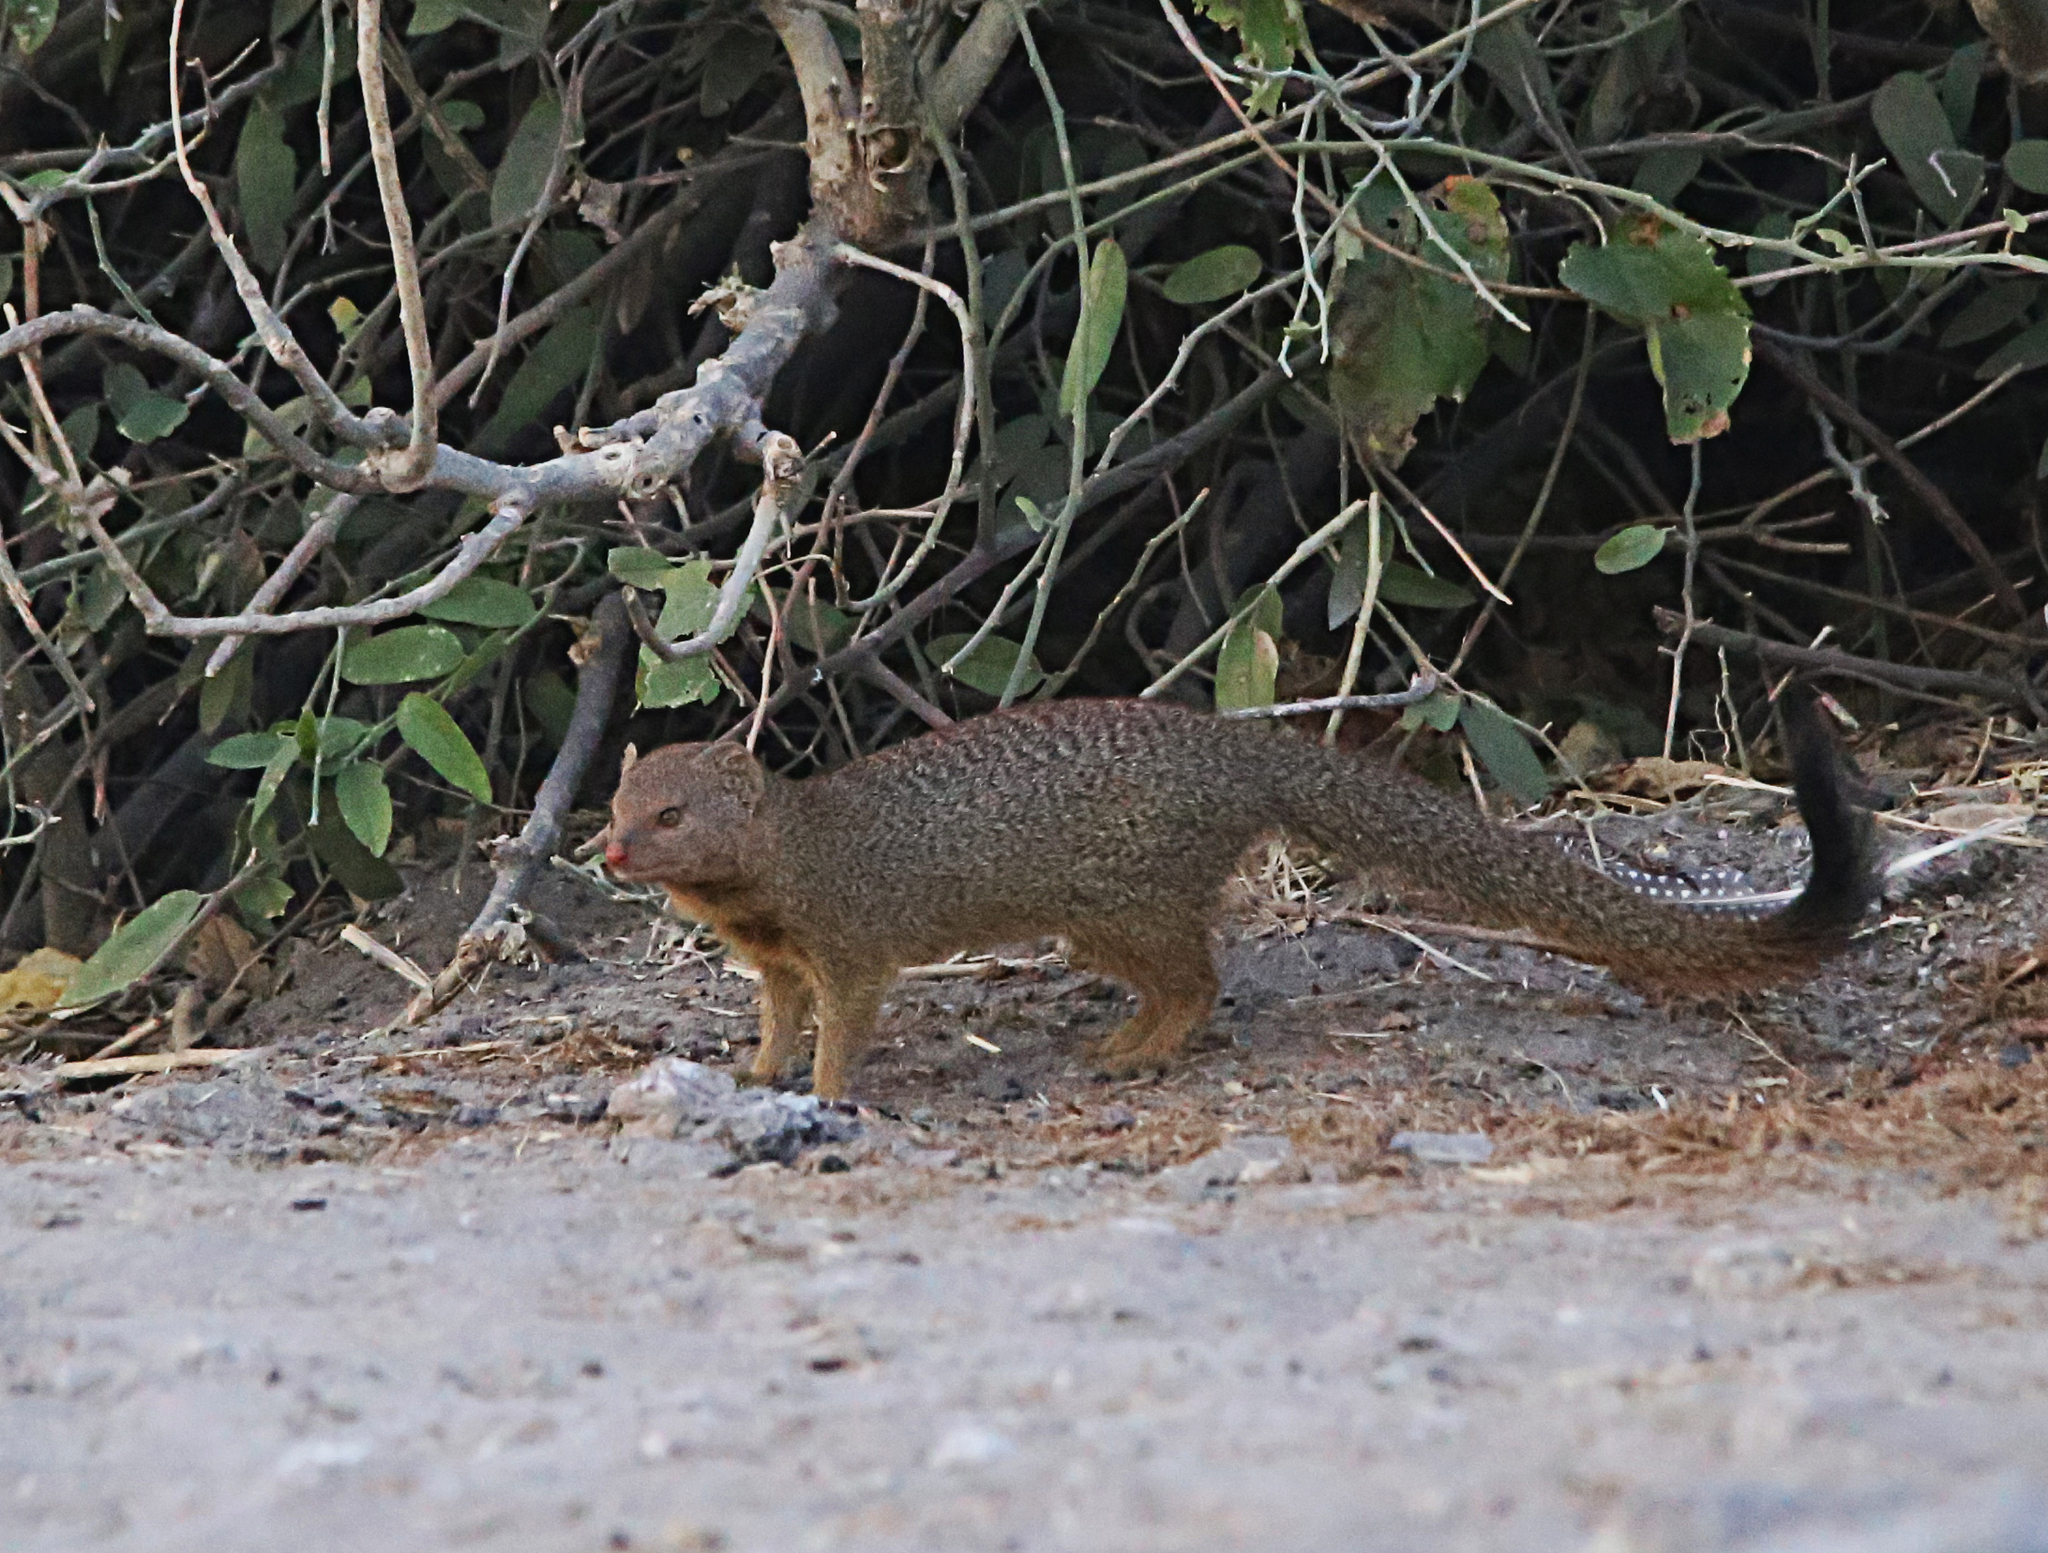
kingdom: Animalia
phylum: Chordata
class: Mammalia
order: Carnivora
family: Herpestidae
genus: Galerella
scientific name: Galerella sanguinea
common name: Slender mongoose
